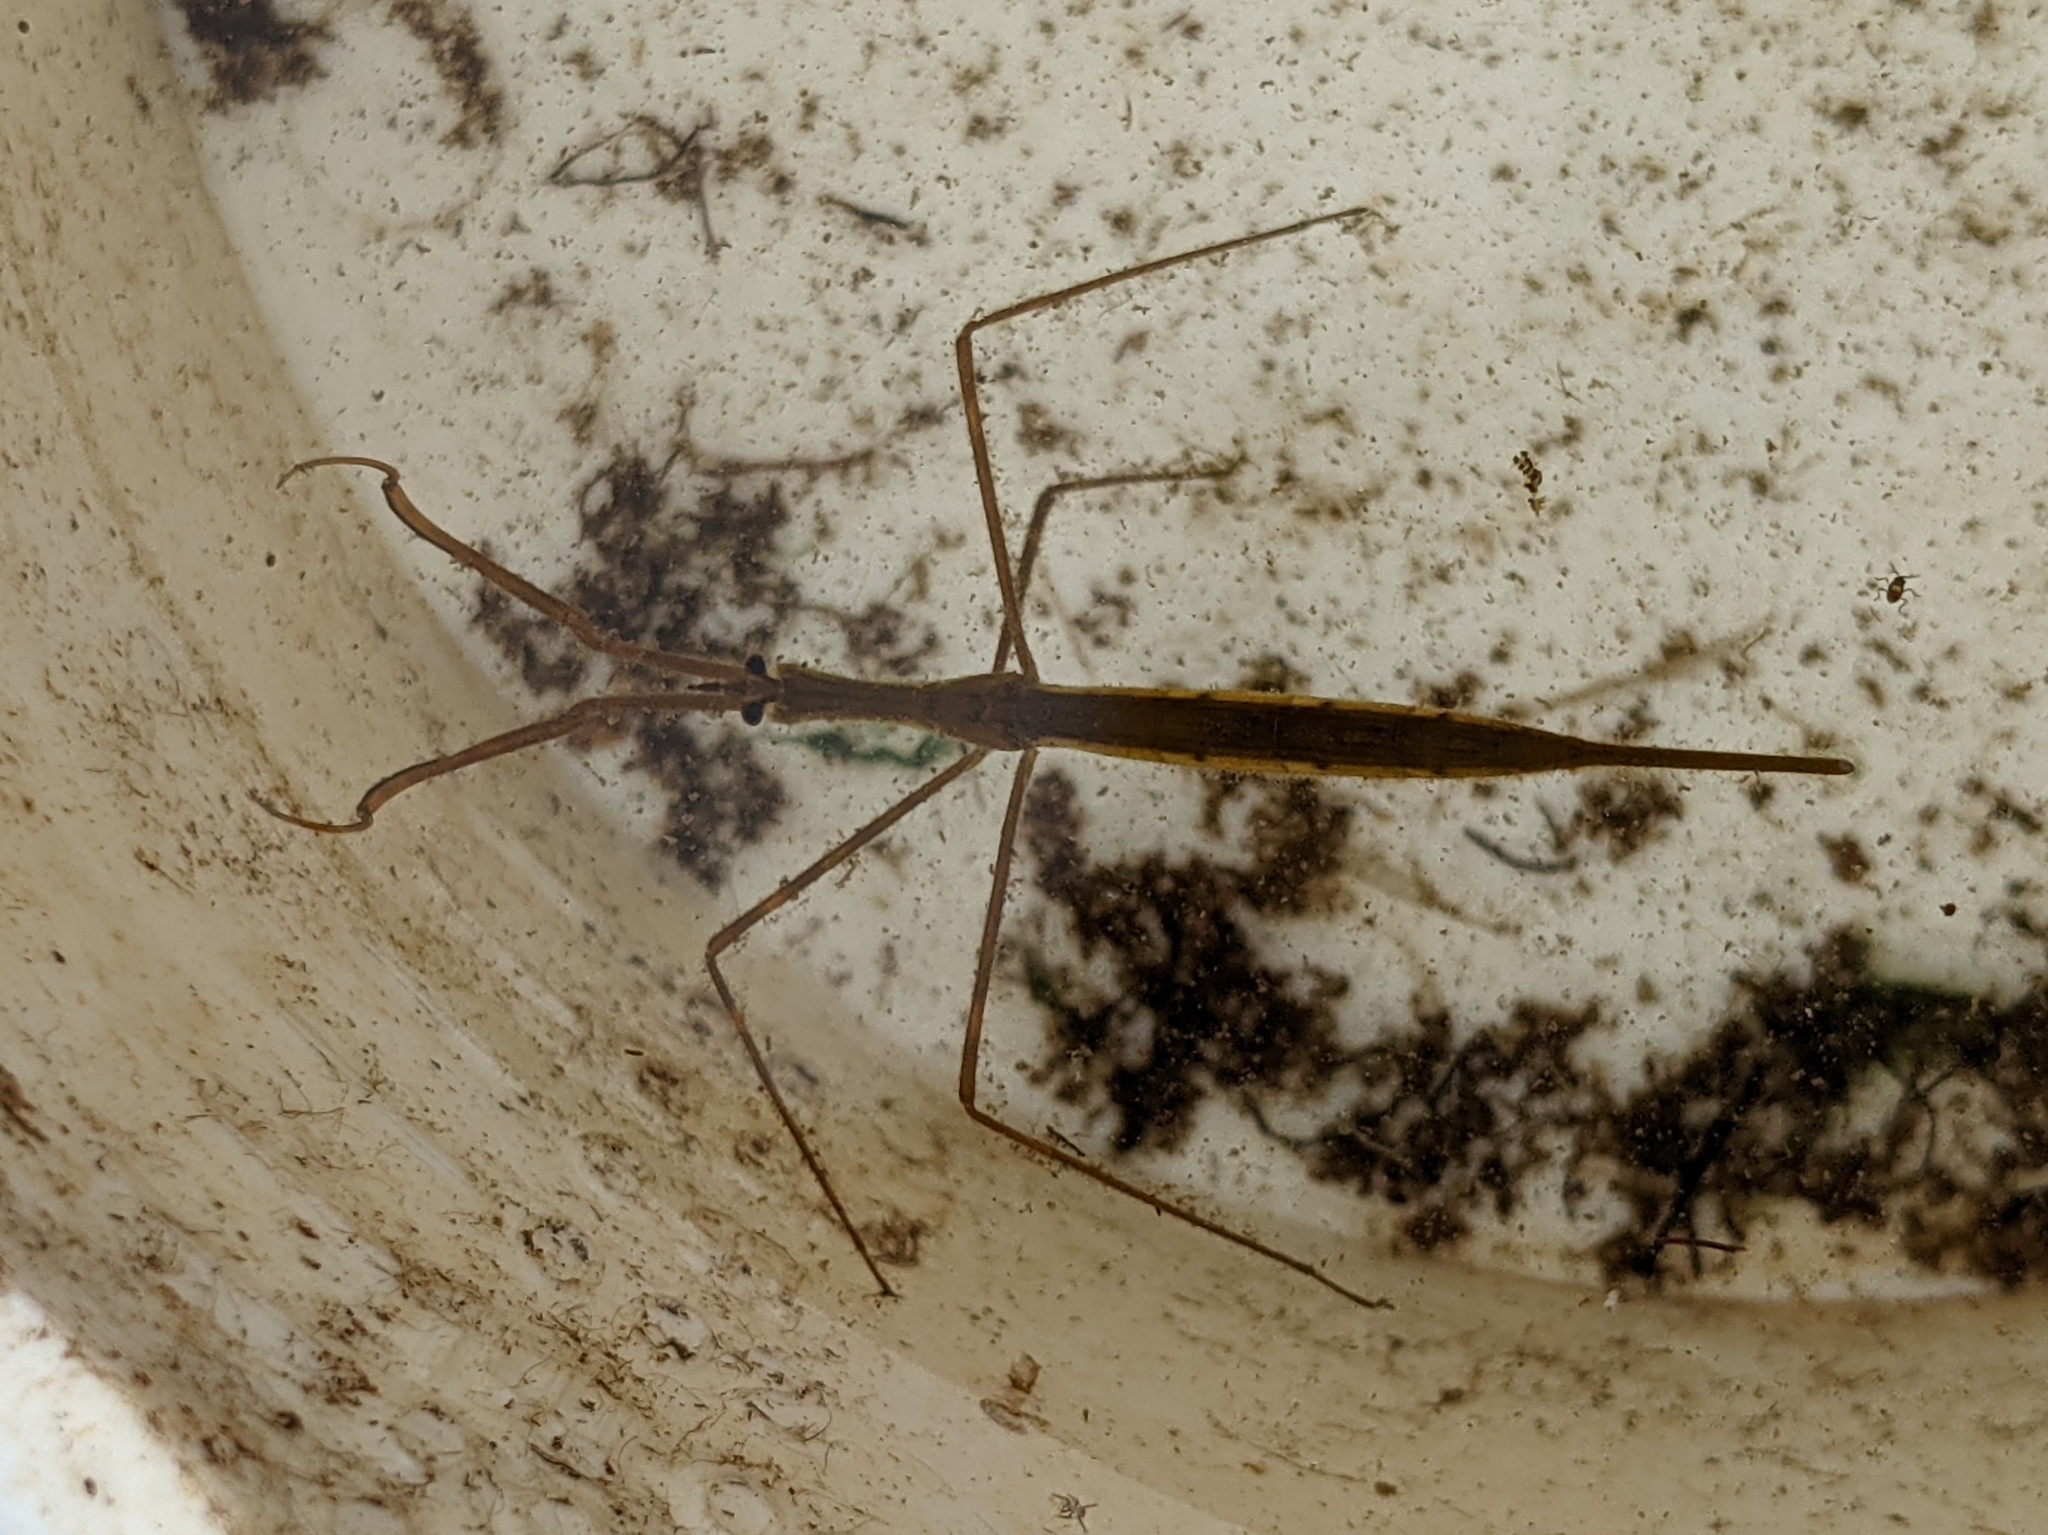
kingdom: Animalia
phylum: Arthropoda
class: Insecta
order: Hemiptera
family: Nepidae
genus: Ranatra
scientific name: Ranatra
